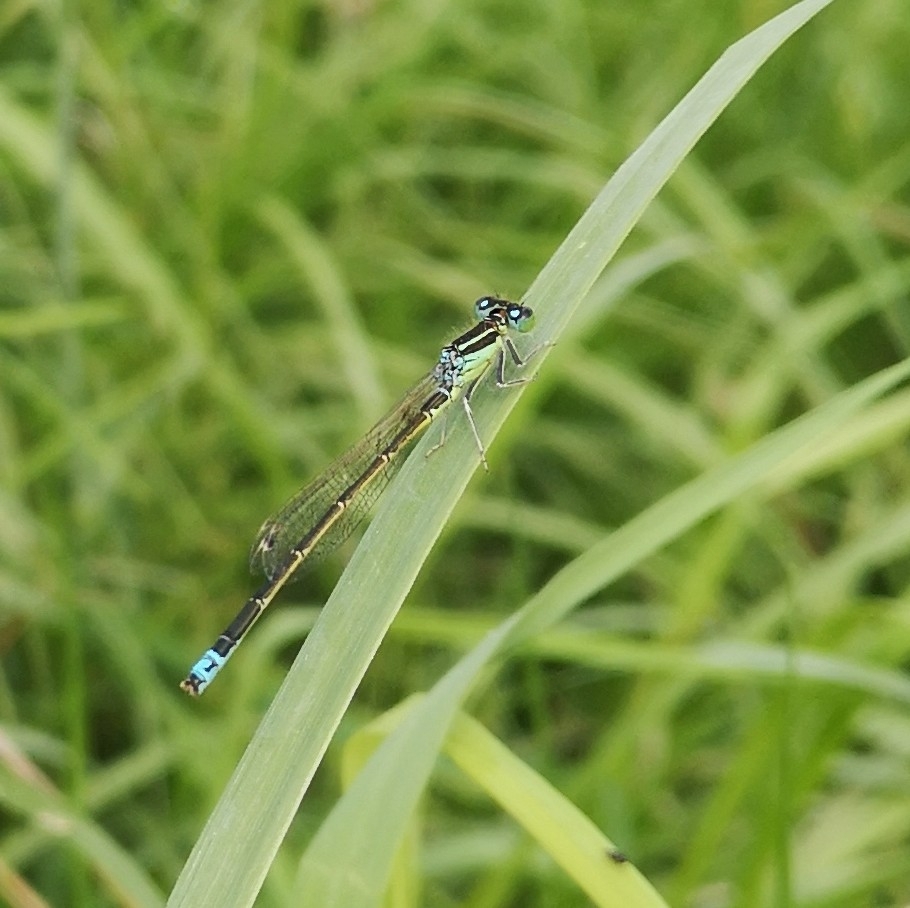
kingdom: Animalia
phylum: Arthropoda
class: Insecta
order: Odonata
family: Coenagrionidae
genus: Ischnura
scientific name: Ischnura pumilio
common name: Scarce blue-tailed damselfly
